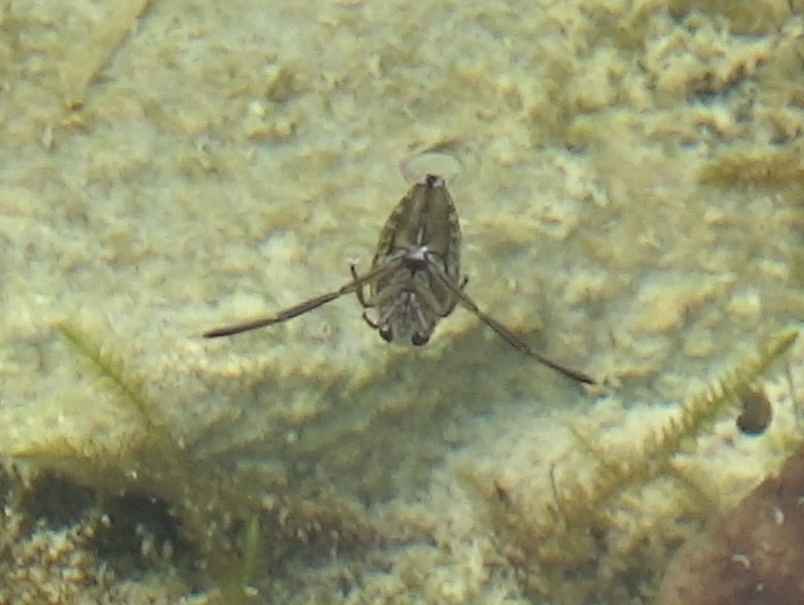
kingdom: Animalia
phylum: Arthropoda
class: Insecta
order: Hemiptera
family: Notonectidae
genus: Notonecta
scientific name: Notonecta
